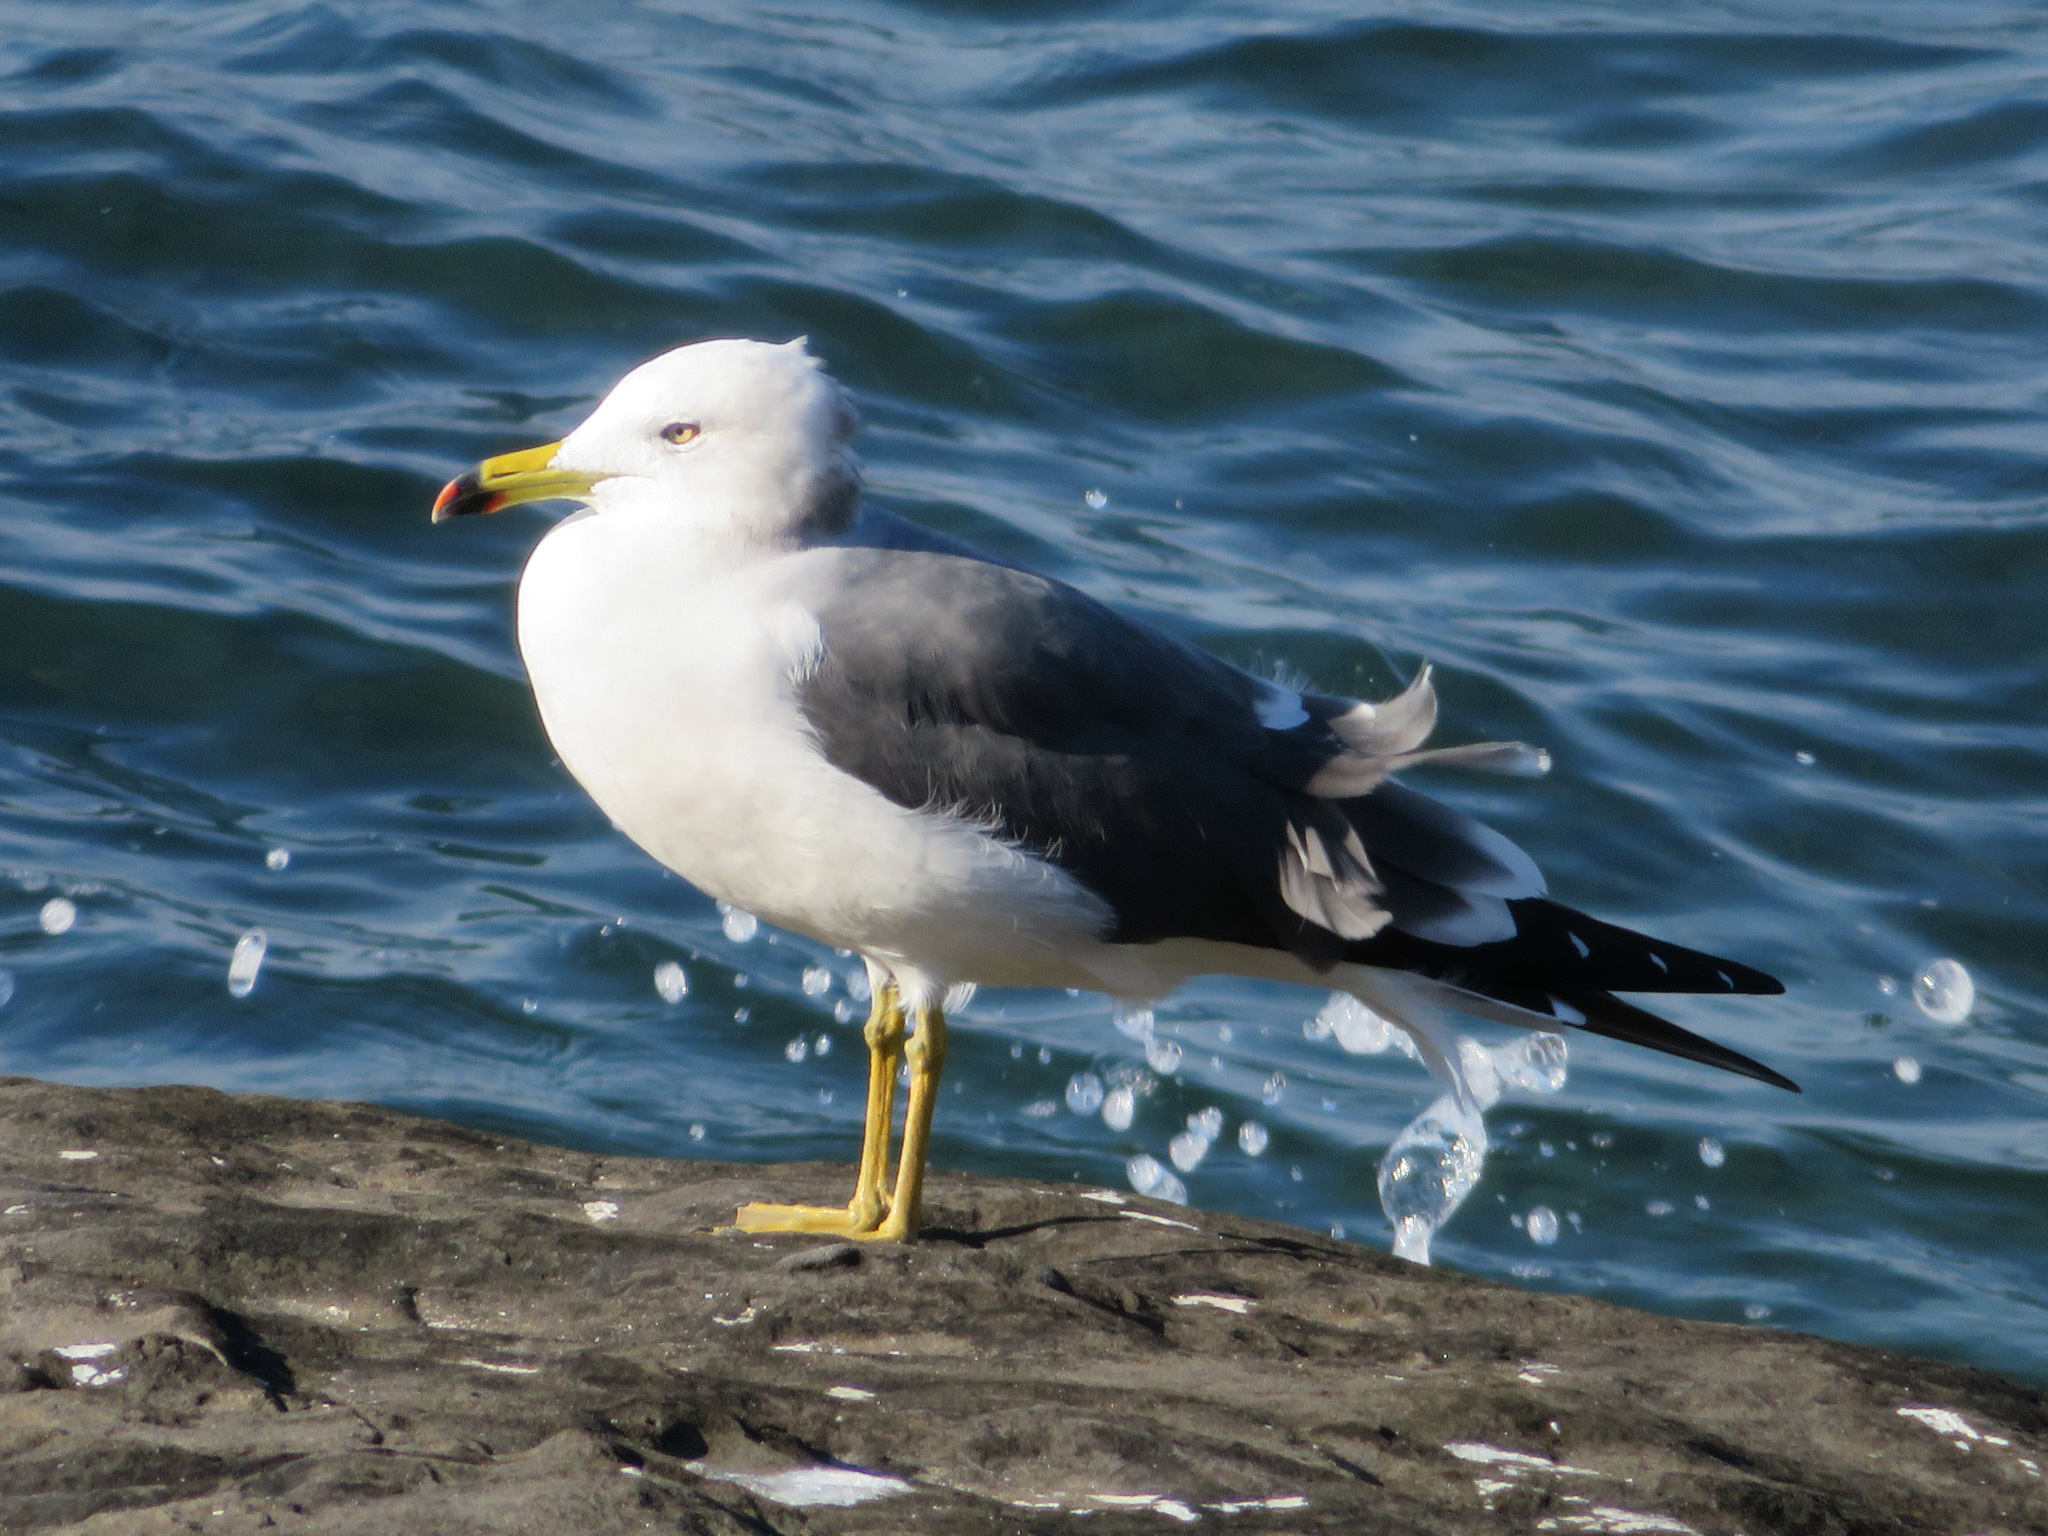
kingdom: Animalia
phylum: Chordata
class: Aves
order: Charadriiformes
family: Laridae
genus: Larus
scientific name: Larus crassirostris
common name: Black-tailed gull
